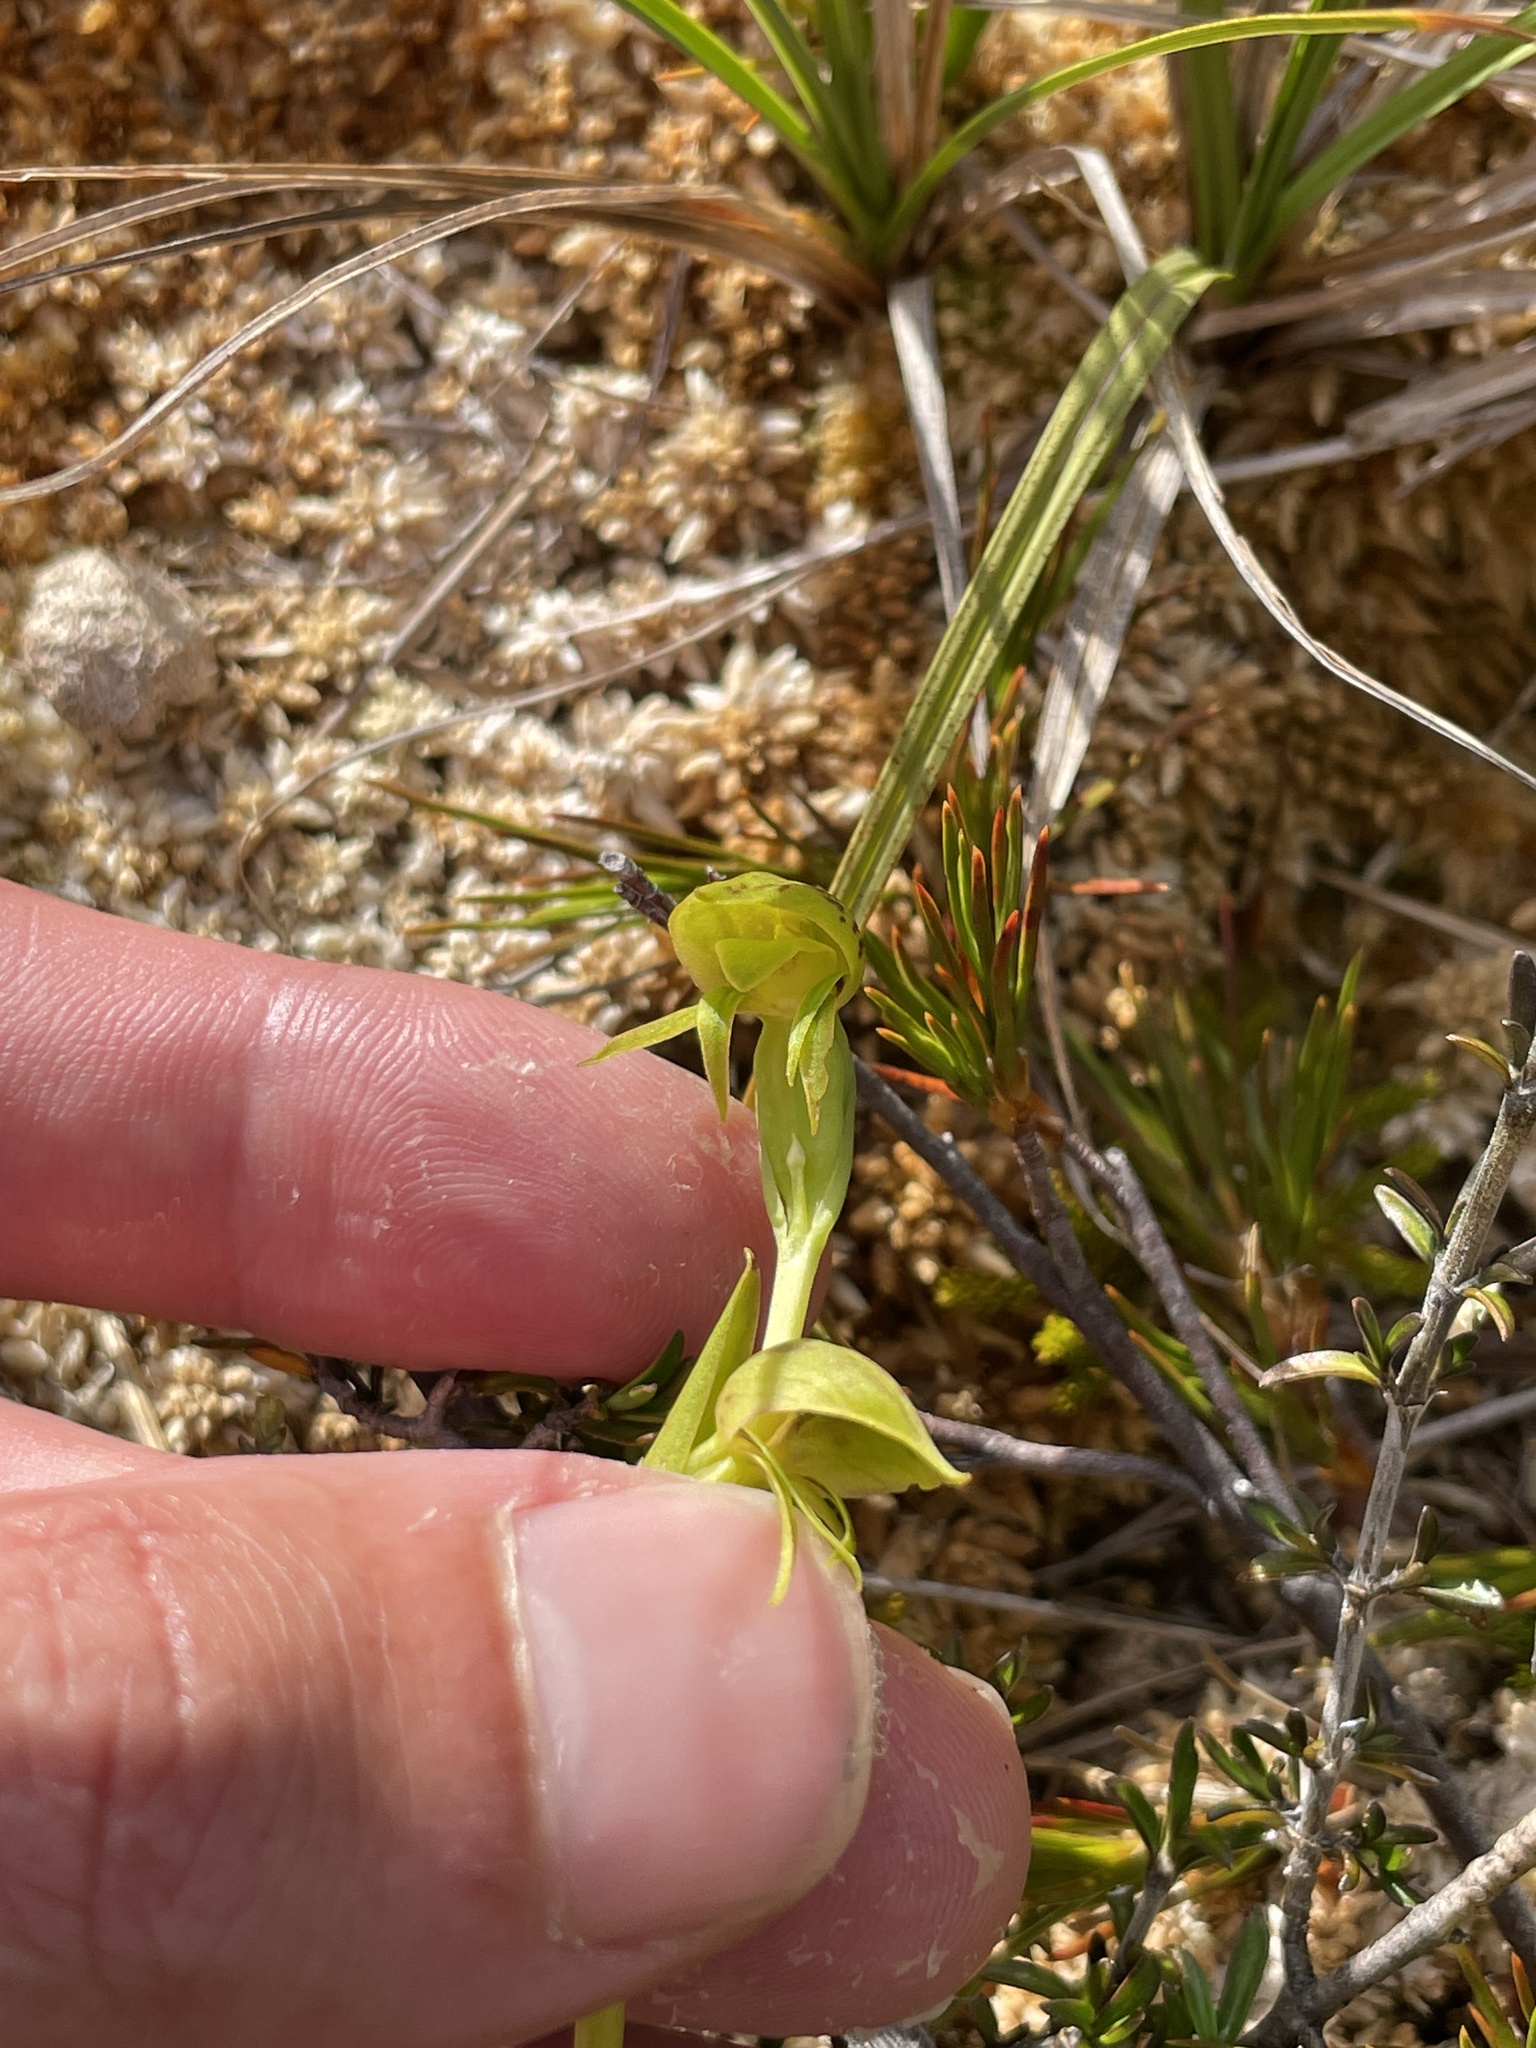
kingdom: Plantae
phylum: Tracheophyta
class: Liliopsida
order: Asparagales
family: Orchidaceae
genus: Waireia
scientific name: Waireia stenopetala
